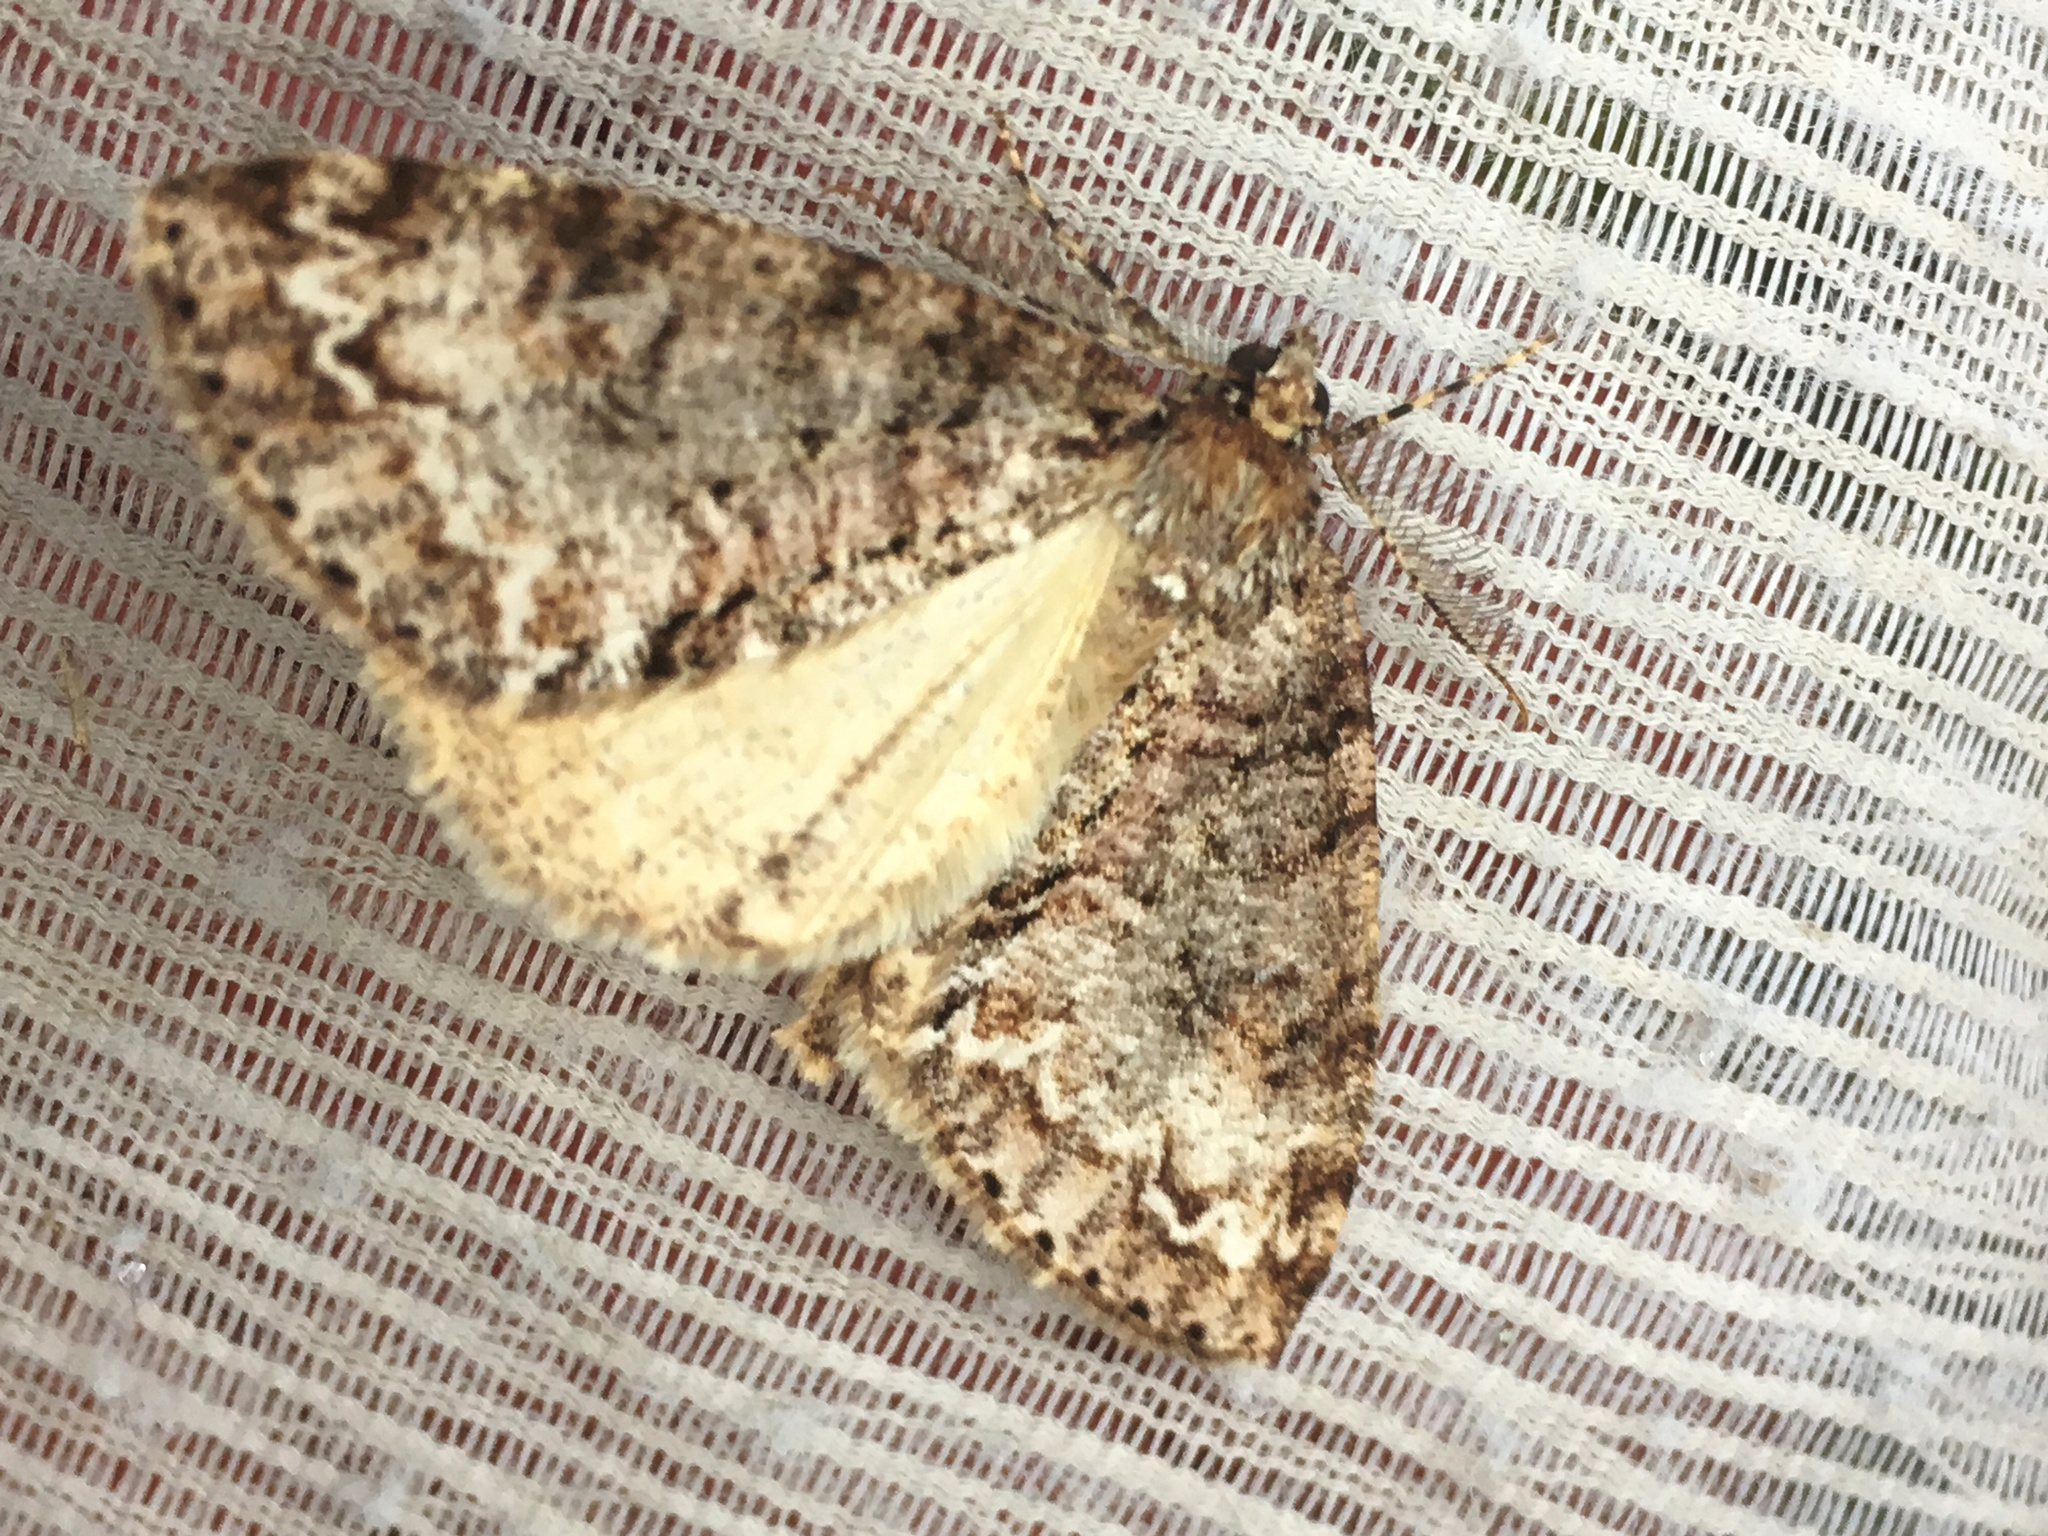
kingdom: Animalia
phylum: Arthropoda
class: Insecta
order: Lepidoptera
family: Geometridae
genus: Pseudocoremia
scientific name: Pseudocoremia suavis
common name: Common forest looper
